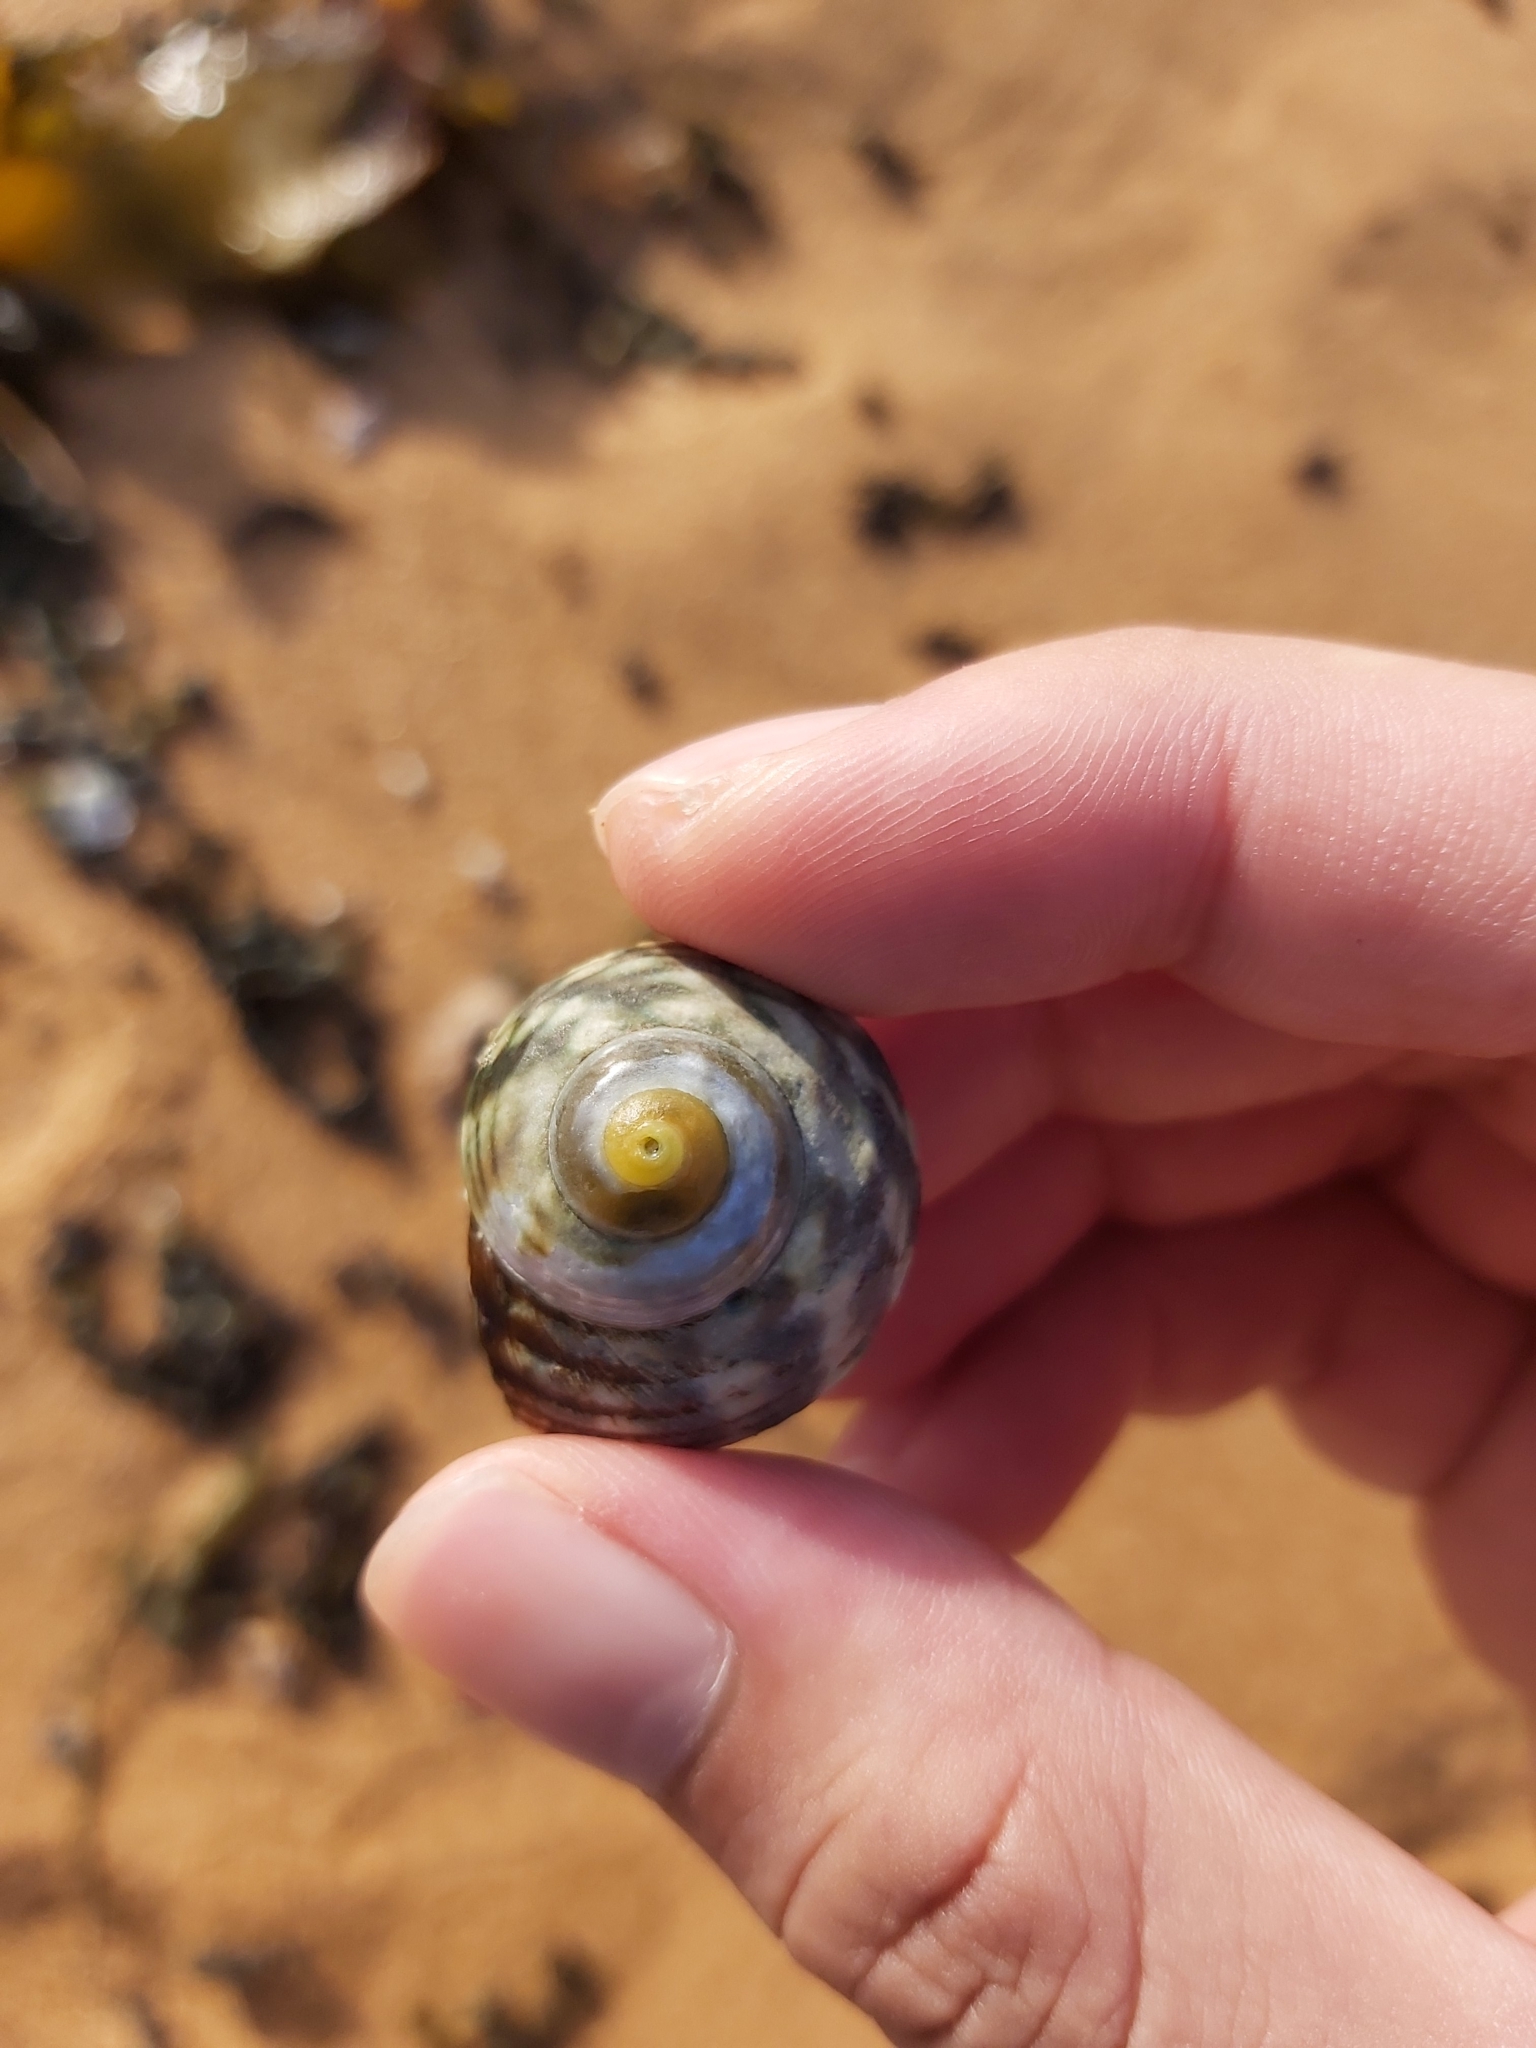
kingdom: Animalia
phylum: Mollusca
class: Gastropoda
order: Trochida
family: Turbinidae
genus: Lunella
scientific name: Lunella undulata
